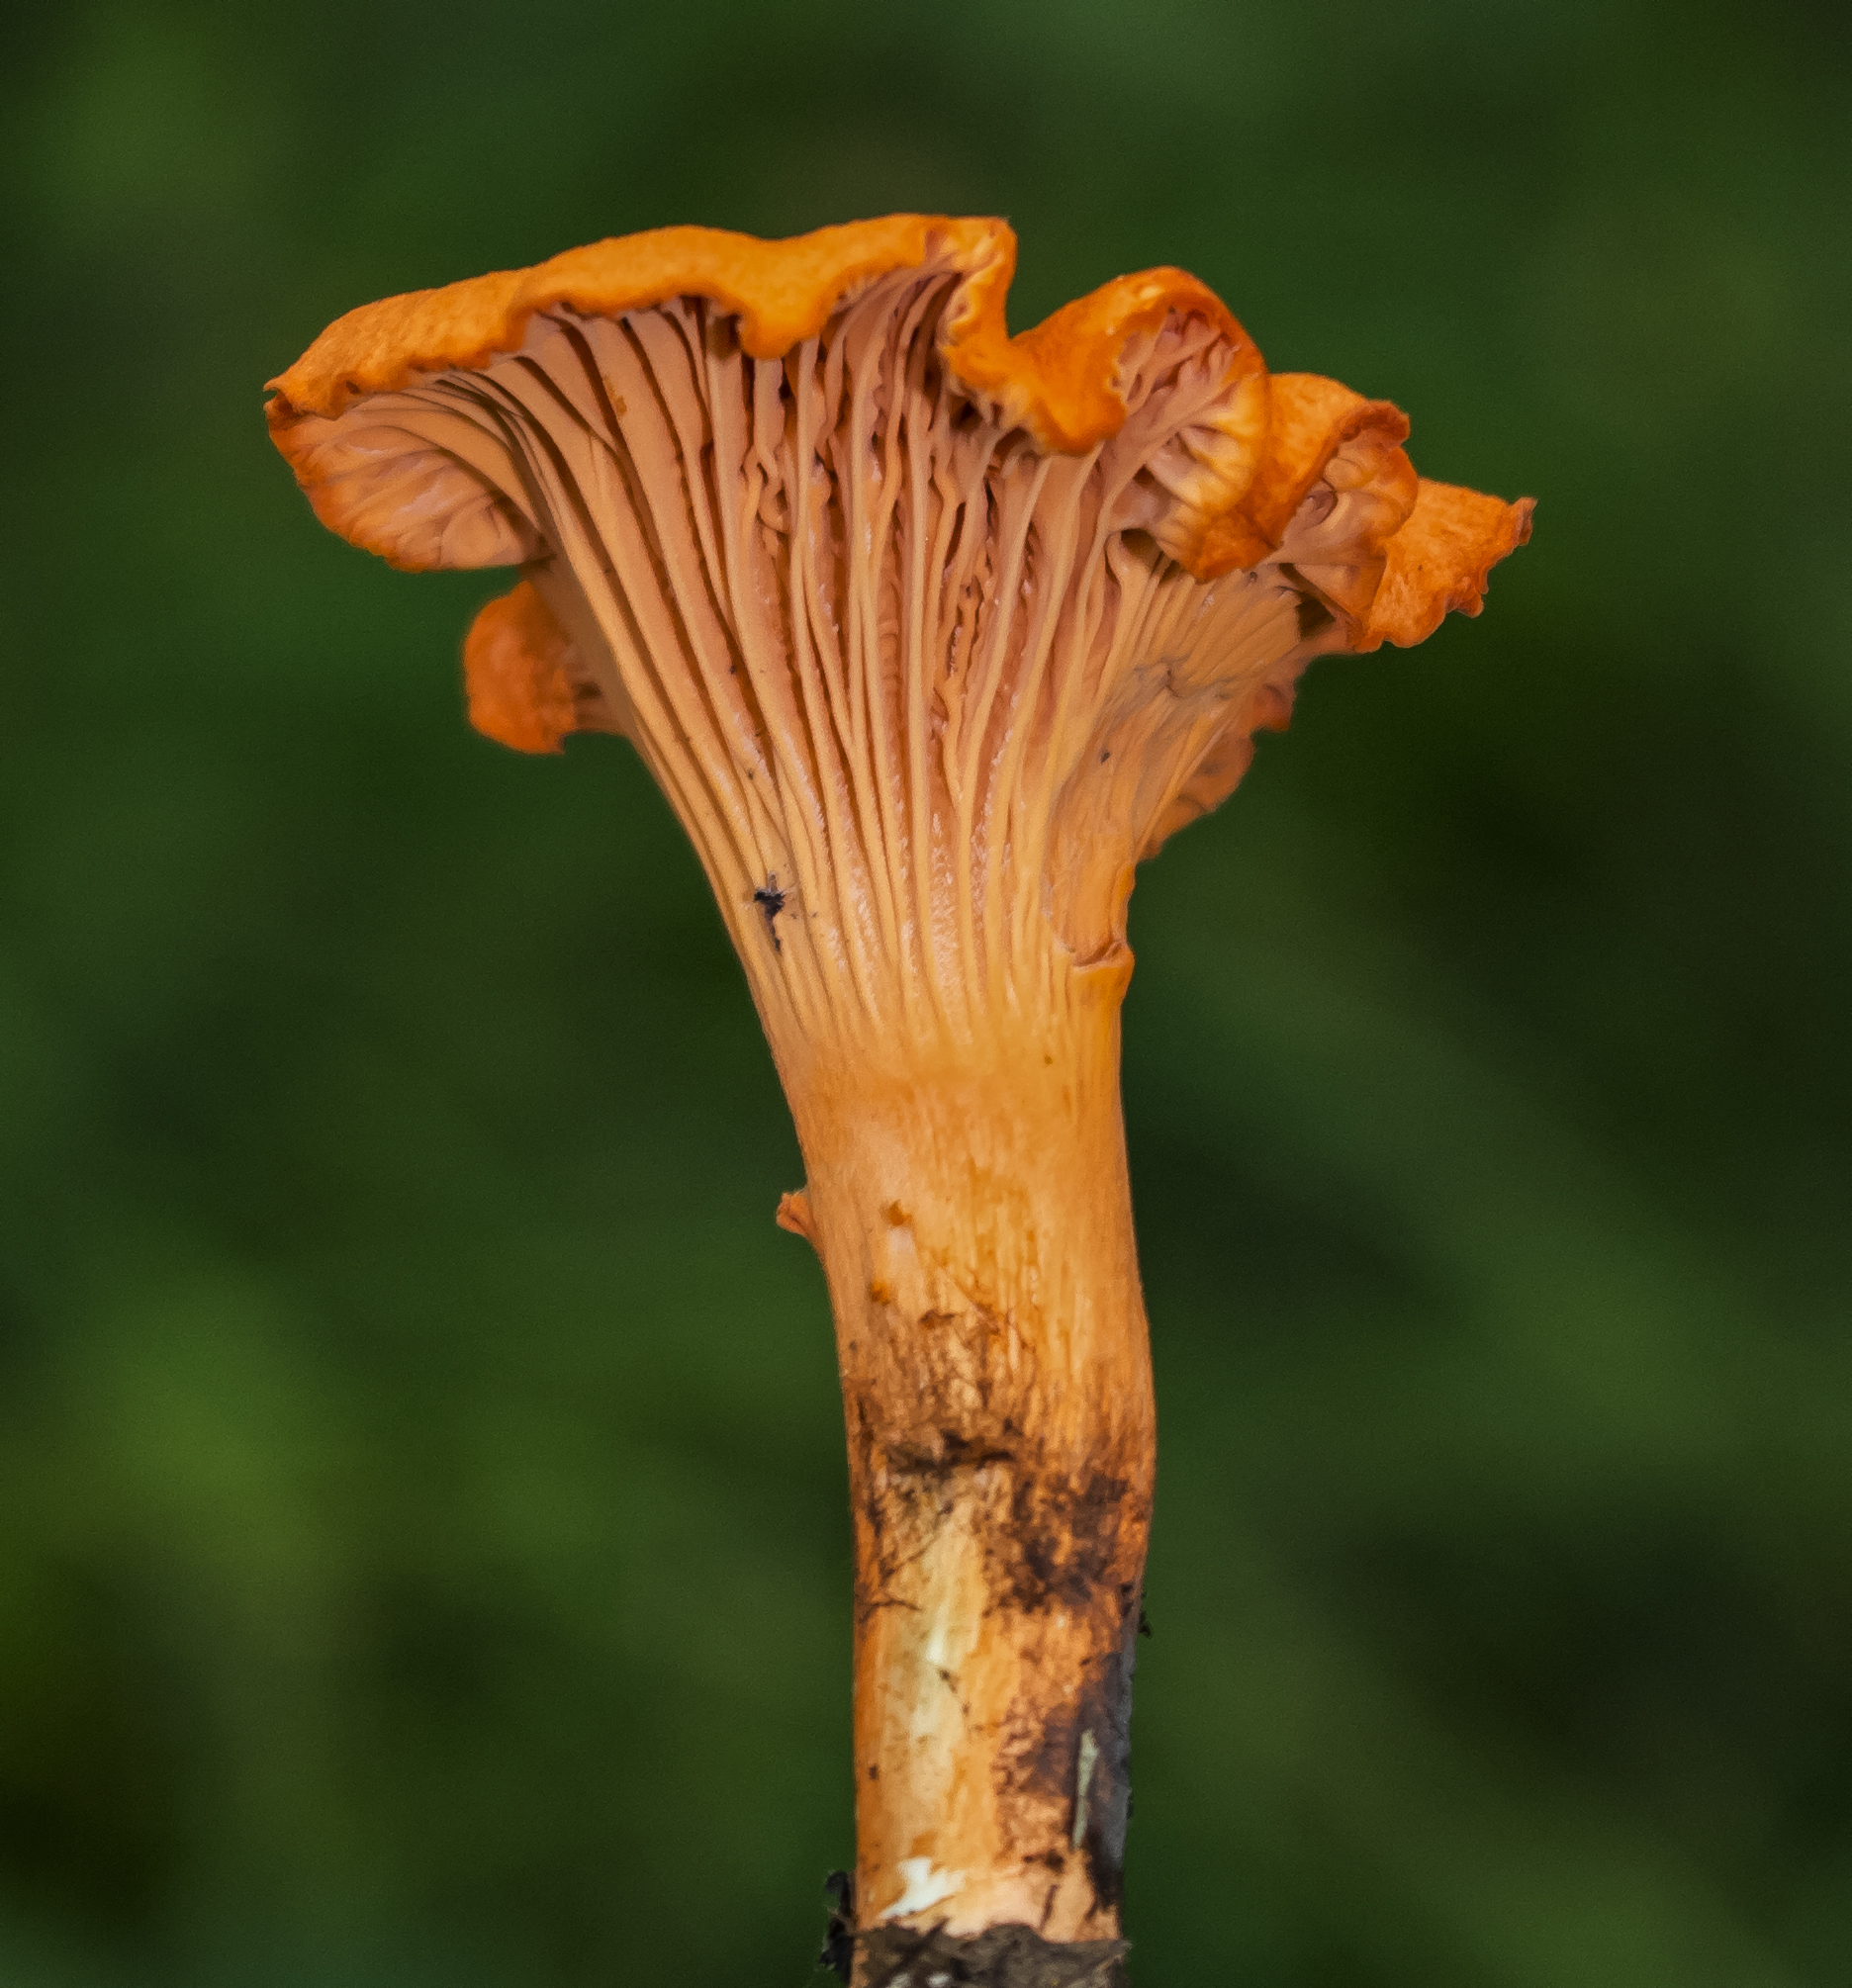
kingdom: Fungi
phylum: Basidiomycota
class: Agaricomycetes
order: Cantharellales
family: Hydnaceae
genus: Cantharellus
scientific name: Cantharellus cinnabarinus
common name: Cinnabar chanterelle
